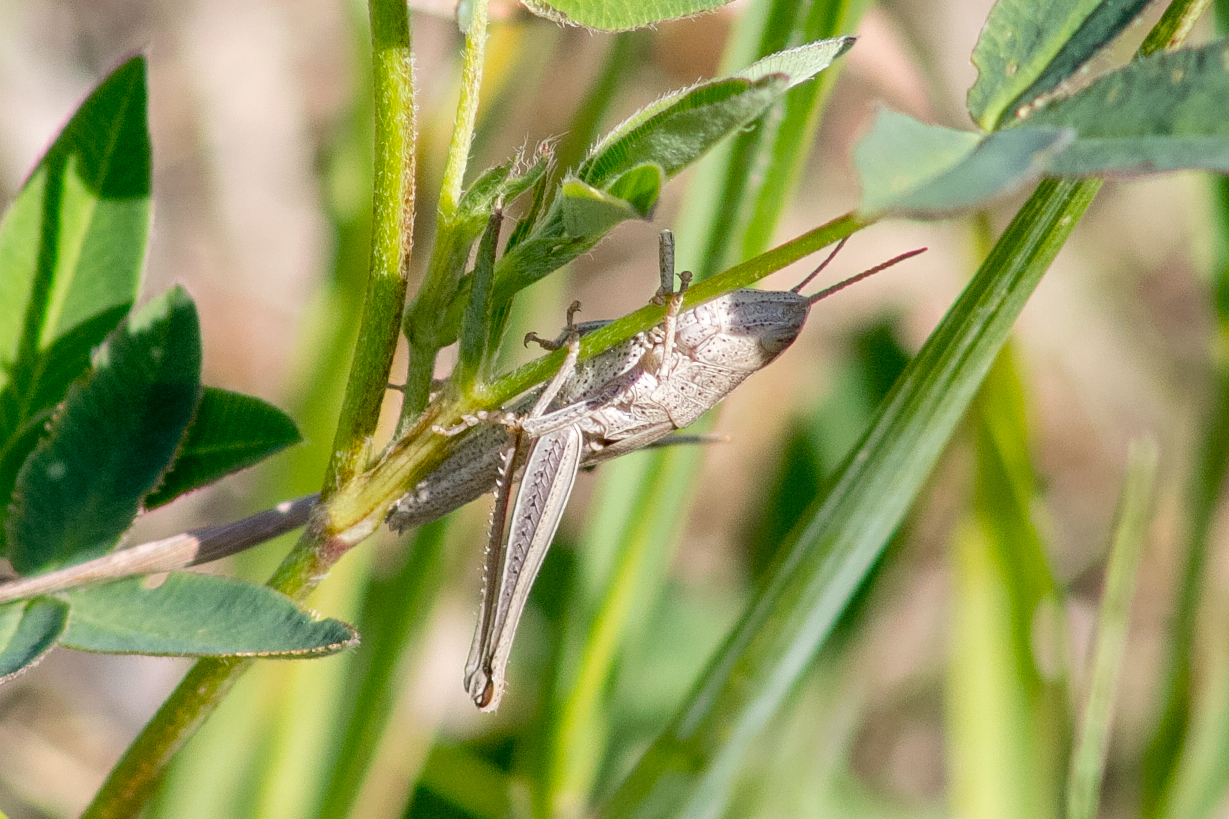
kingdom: Animalia
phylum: Arthropoda
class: Insecta
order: Orthoptera
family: Acrididae
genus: Chrysochraon
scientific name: Chrysochraon dispar
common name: Large gold grasshopper
